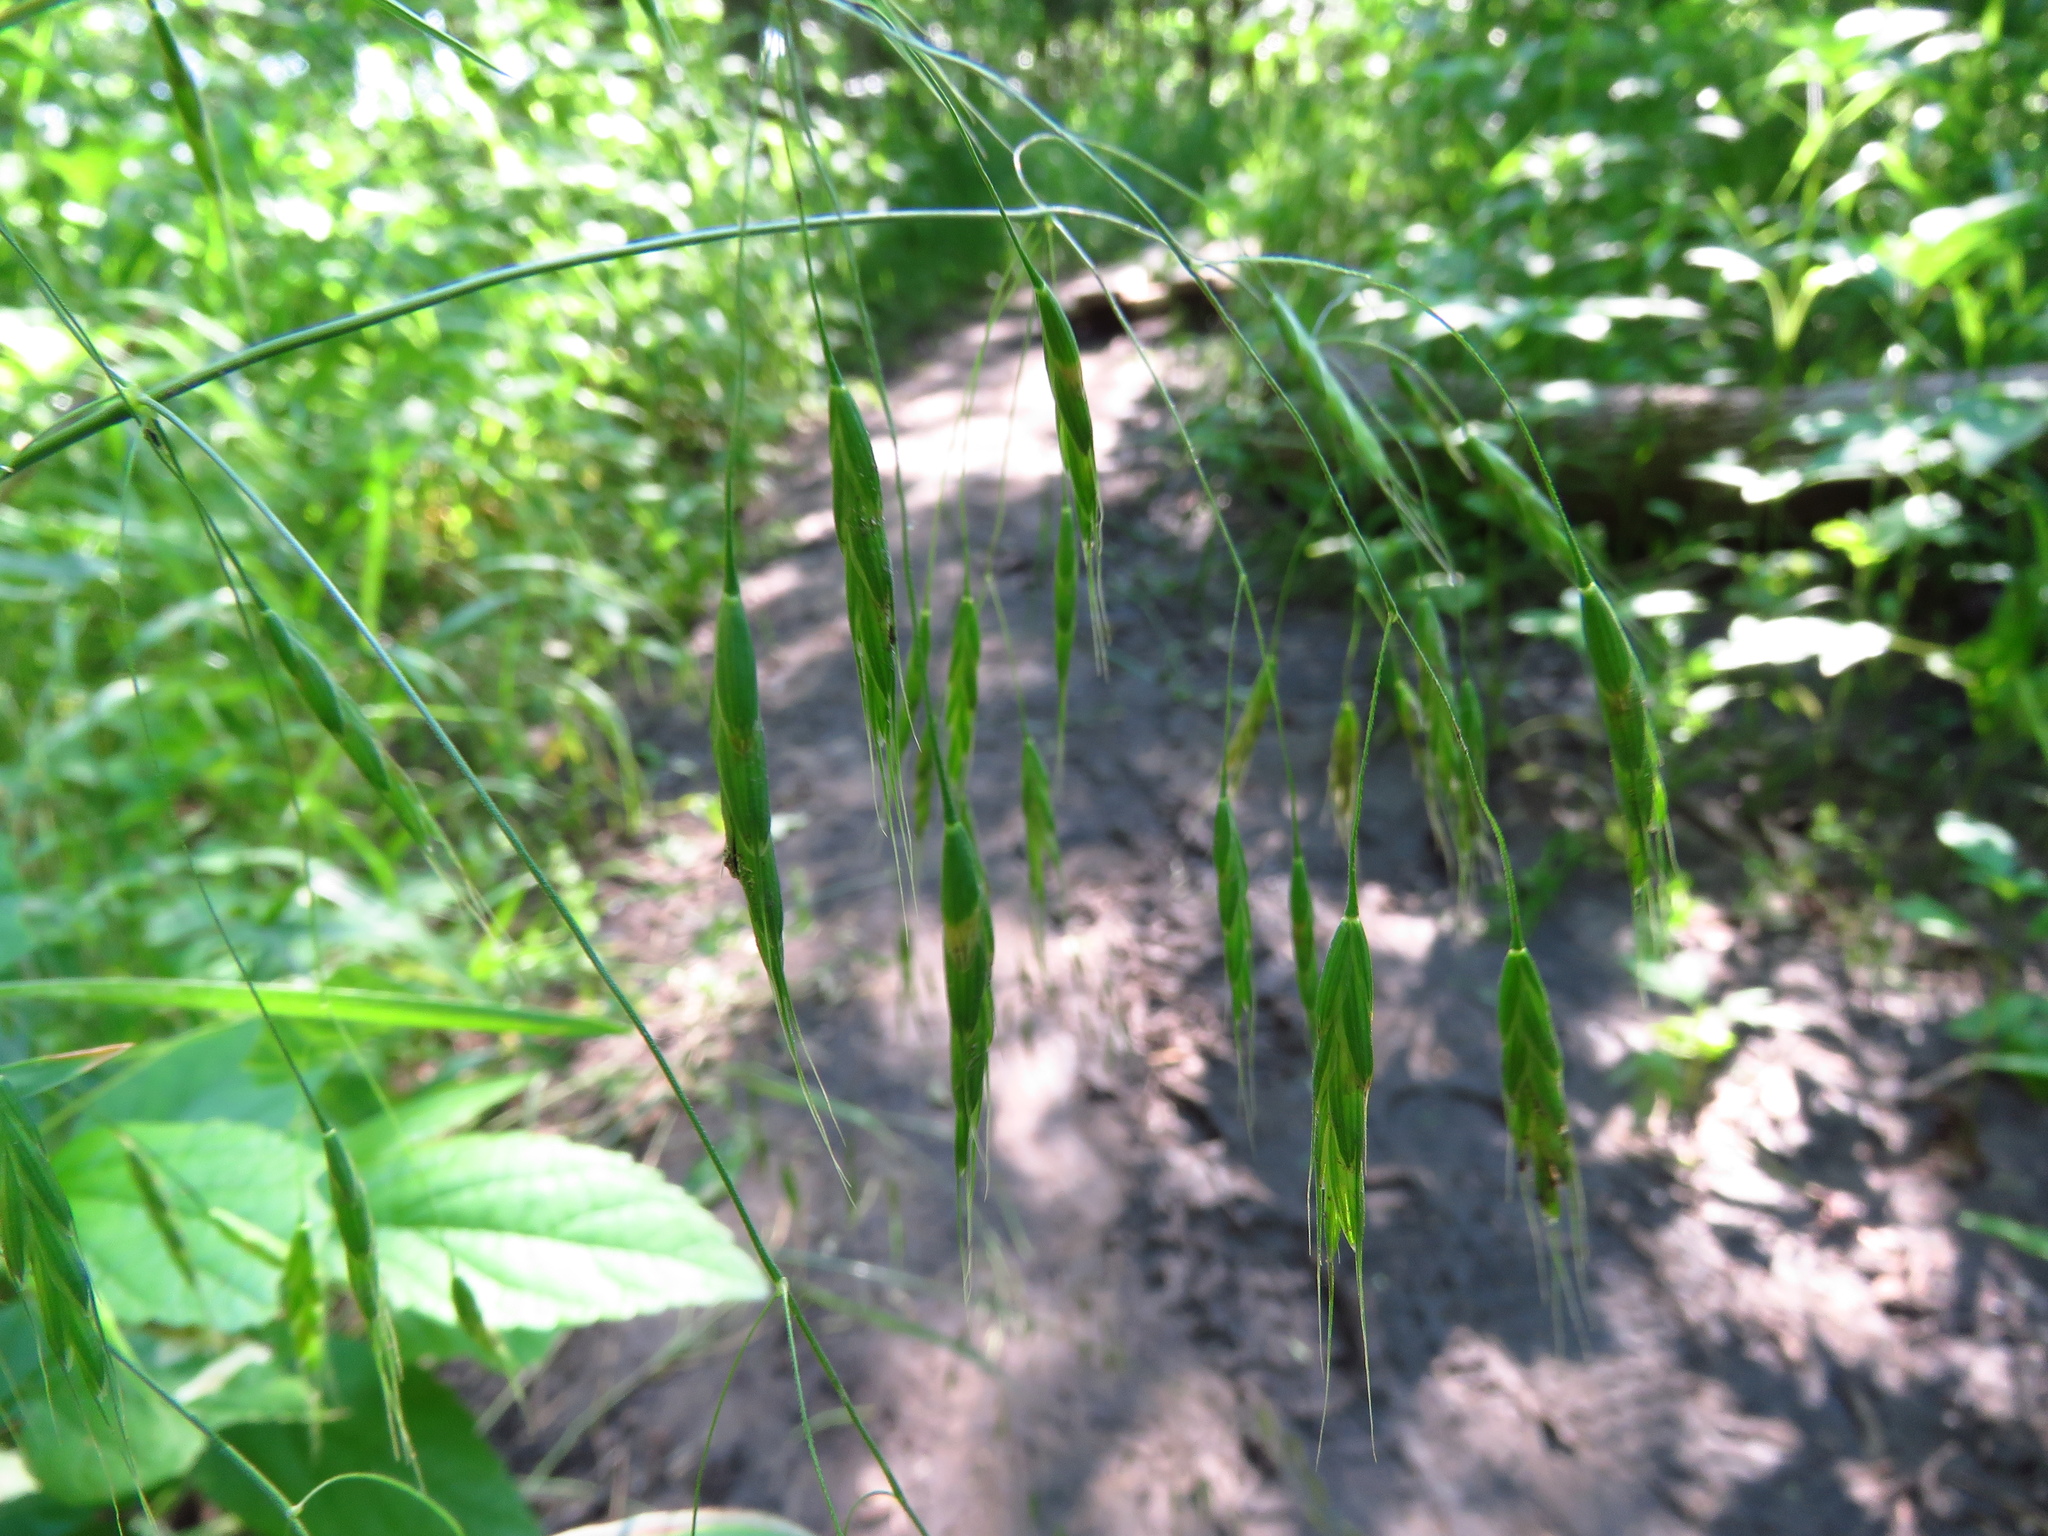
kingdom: Plantae
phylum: Tracheophyta
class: Liliopsida
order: Poales
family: Poaceae
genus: Bromus
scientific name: Bromus japonicus
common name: Japanese brome
